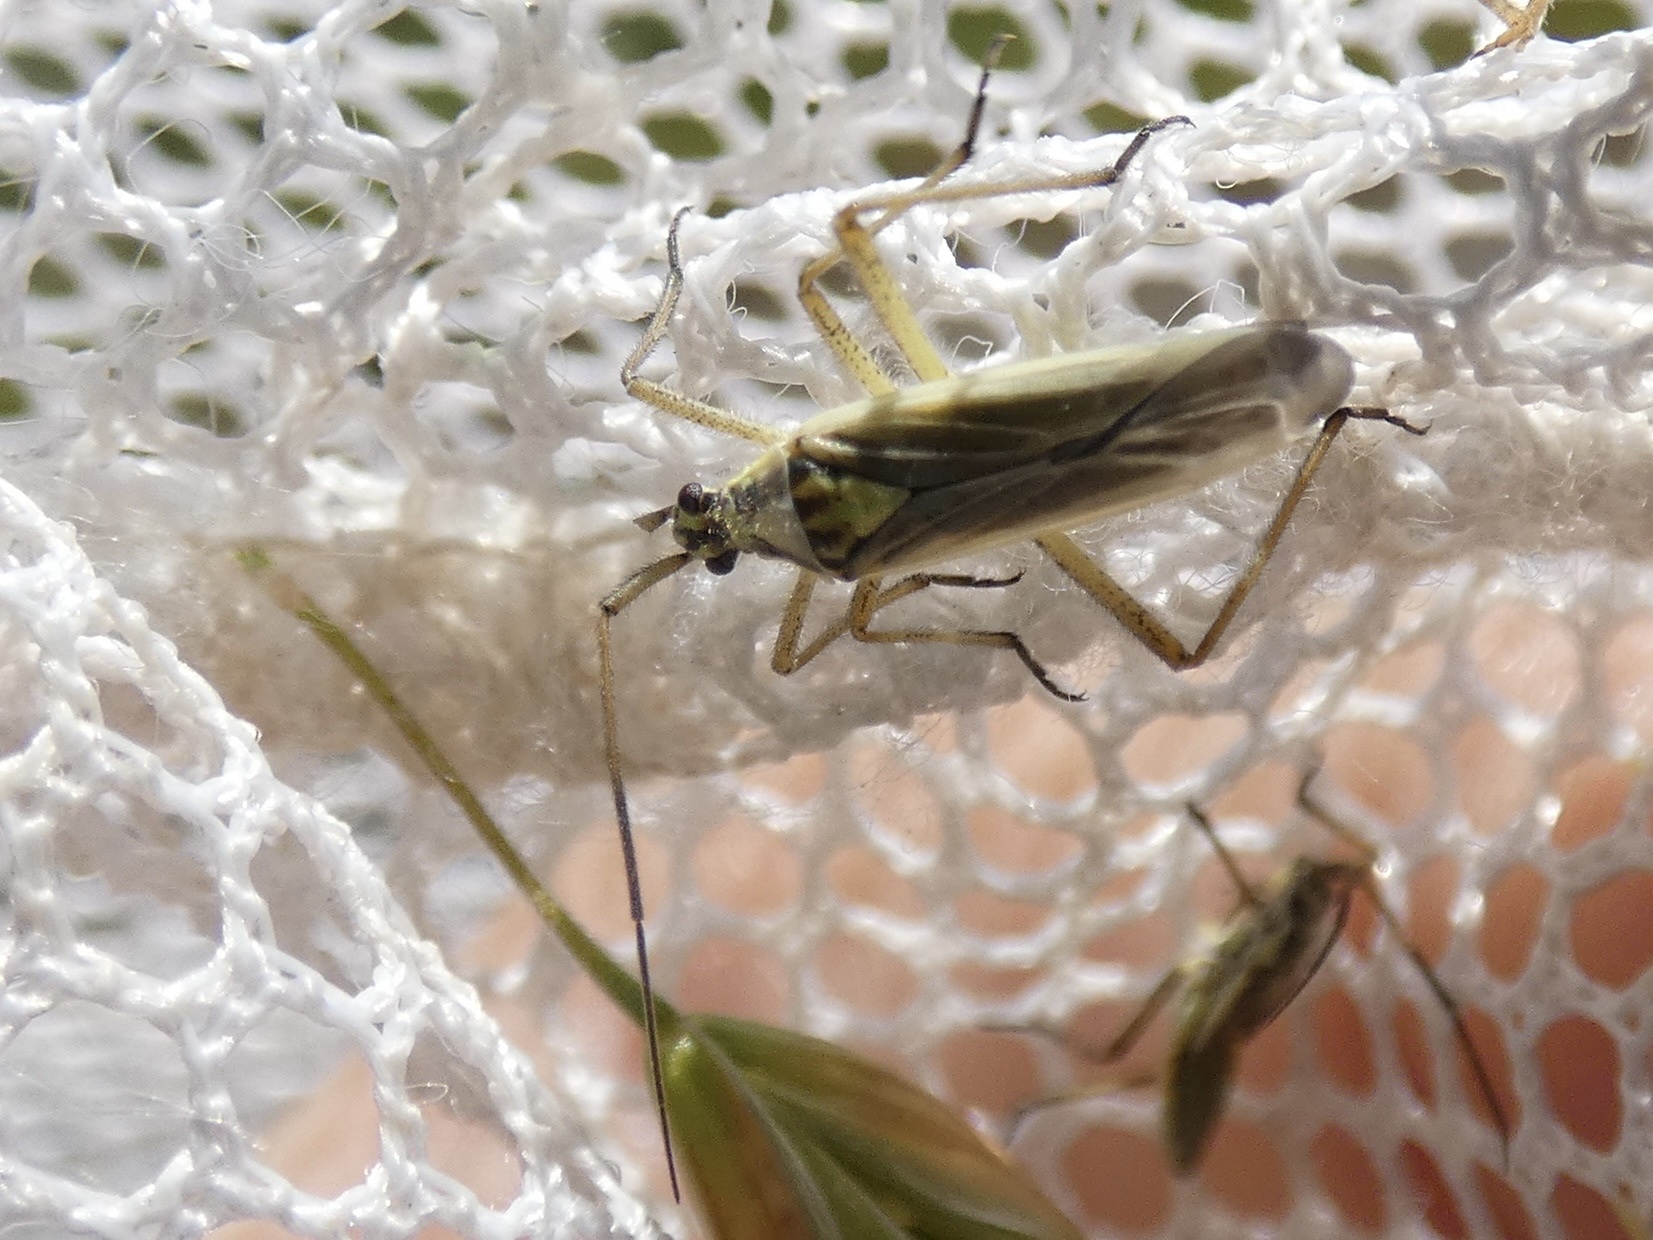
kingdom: Animalia
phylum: Arthropoda
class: Insecta
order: Hemiptera
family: Miridae
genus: Leptopterna
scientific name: Leptopterna dolabrata
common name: Meadow plant bug
